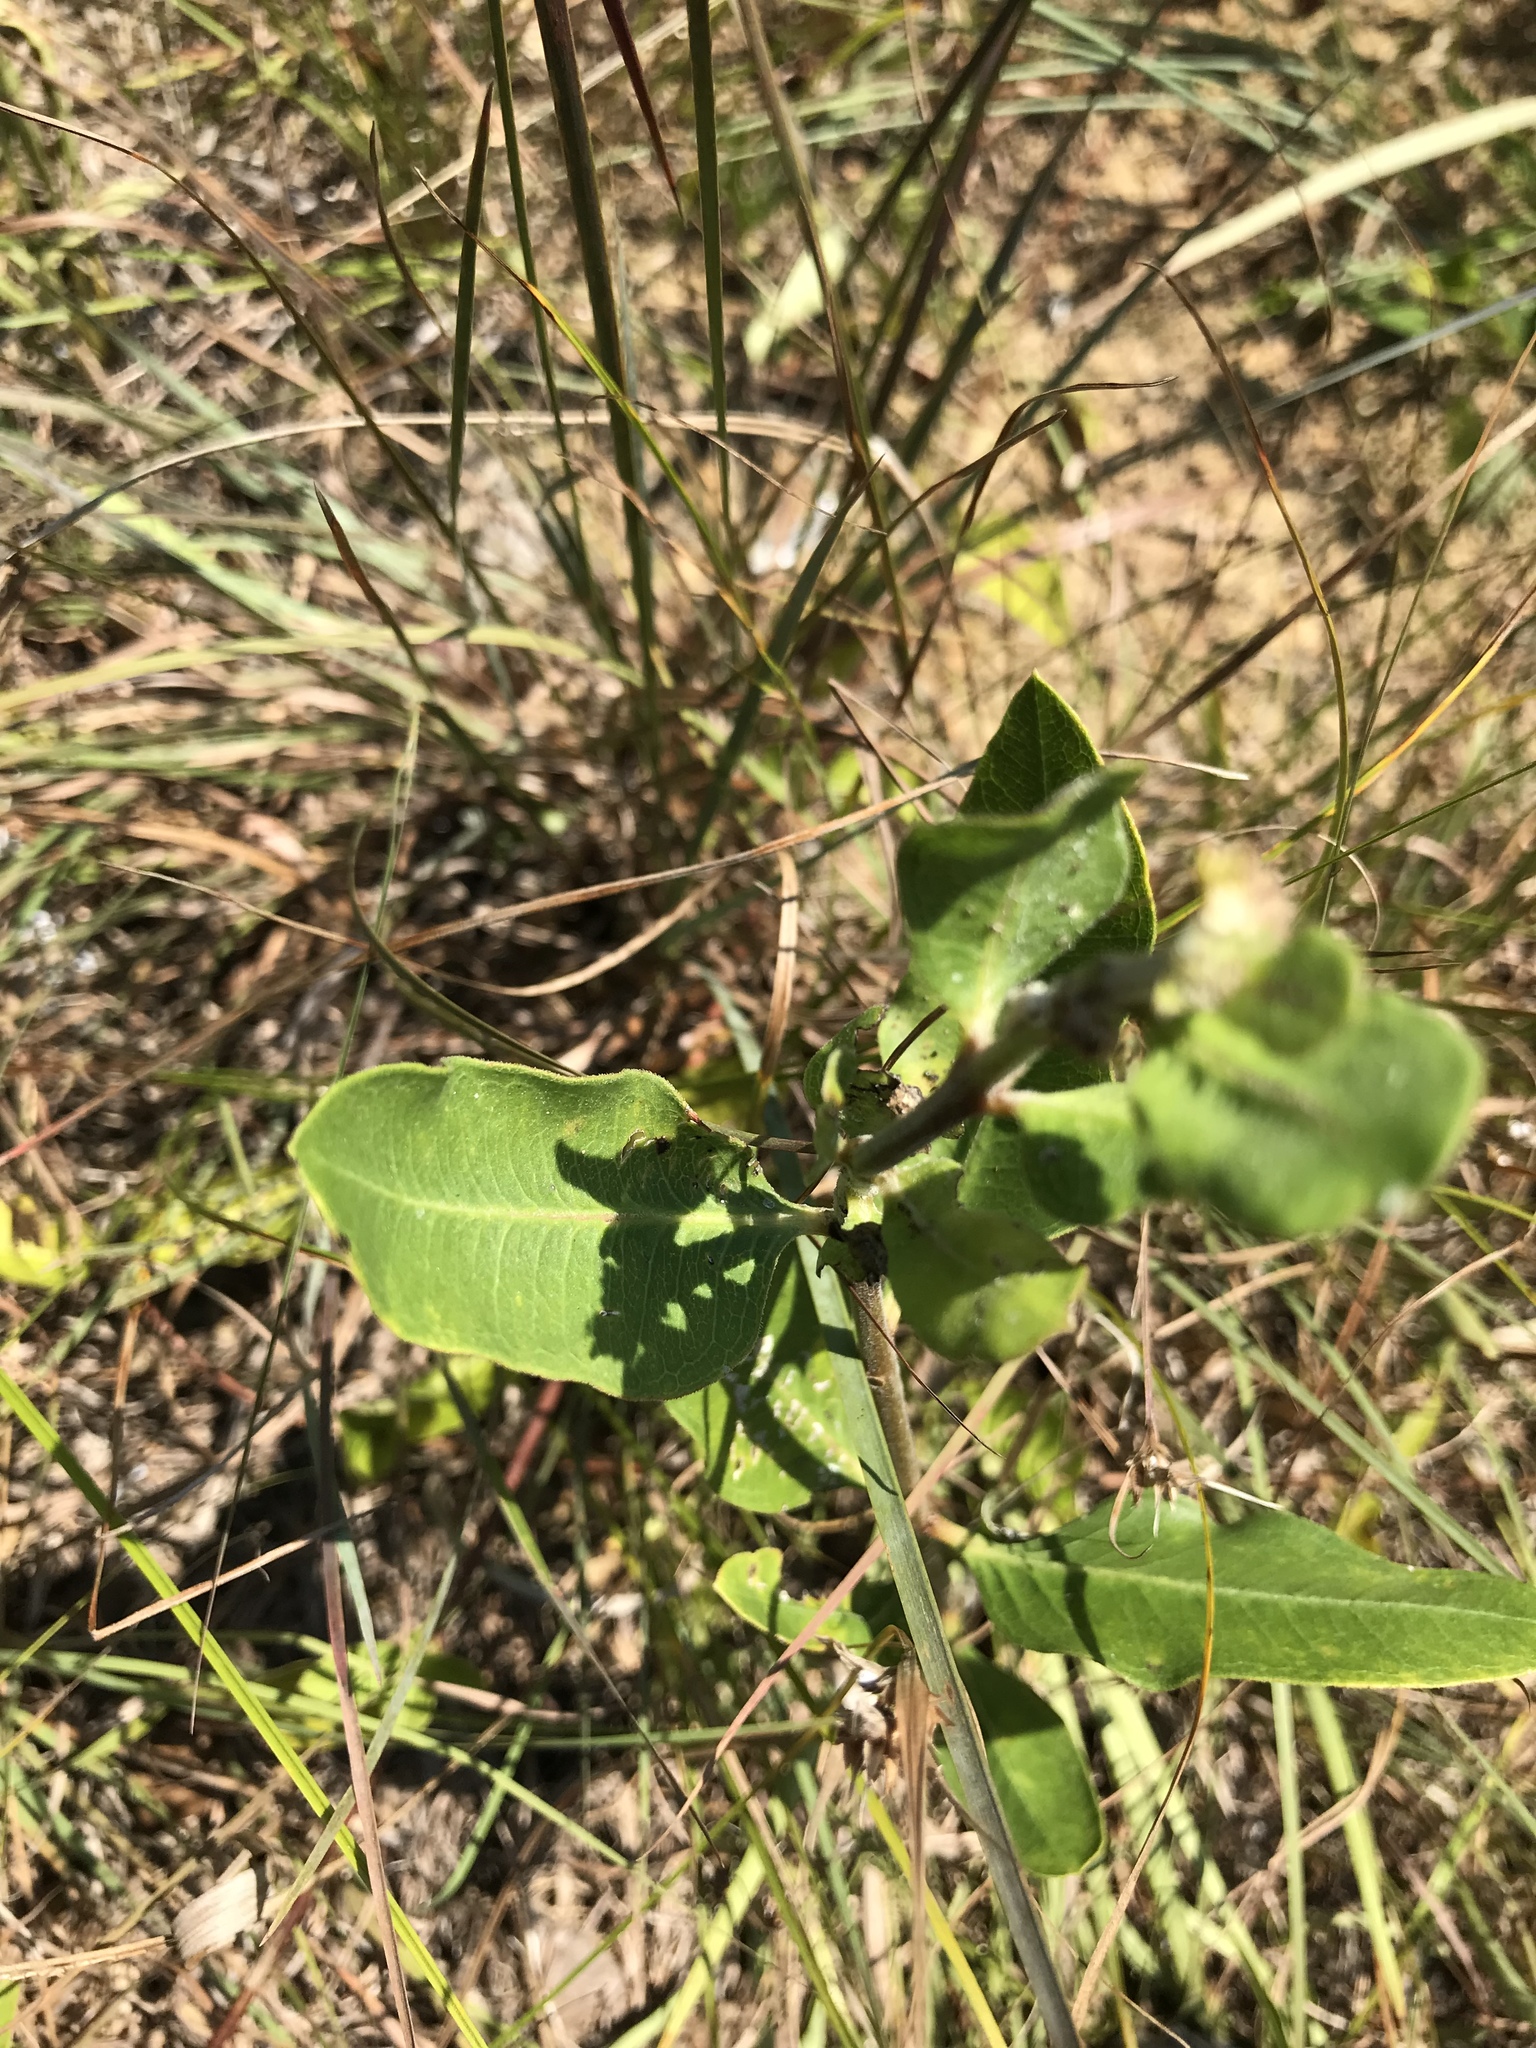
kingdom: Plantae
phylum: Tracheophyta
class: Magnoliopsida
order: Gentianales
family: Apocynaceae
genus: Asclepias
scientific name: Asclepias viridiflora
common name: Green comet milkweed
